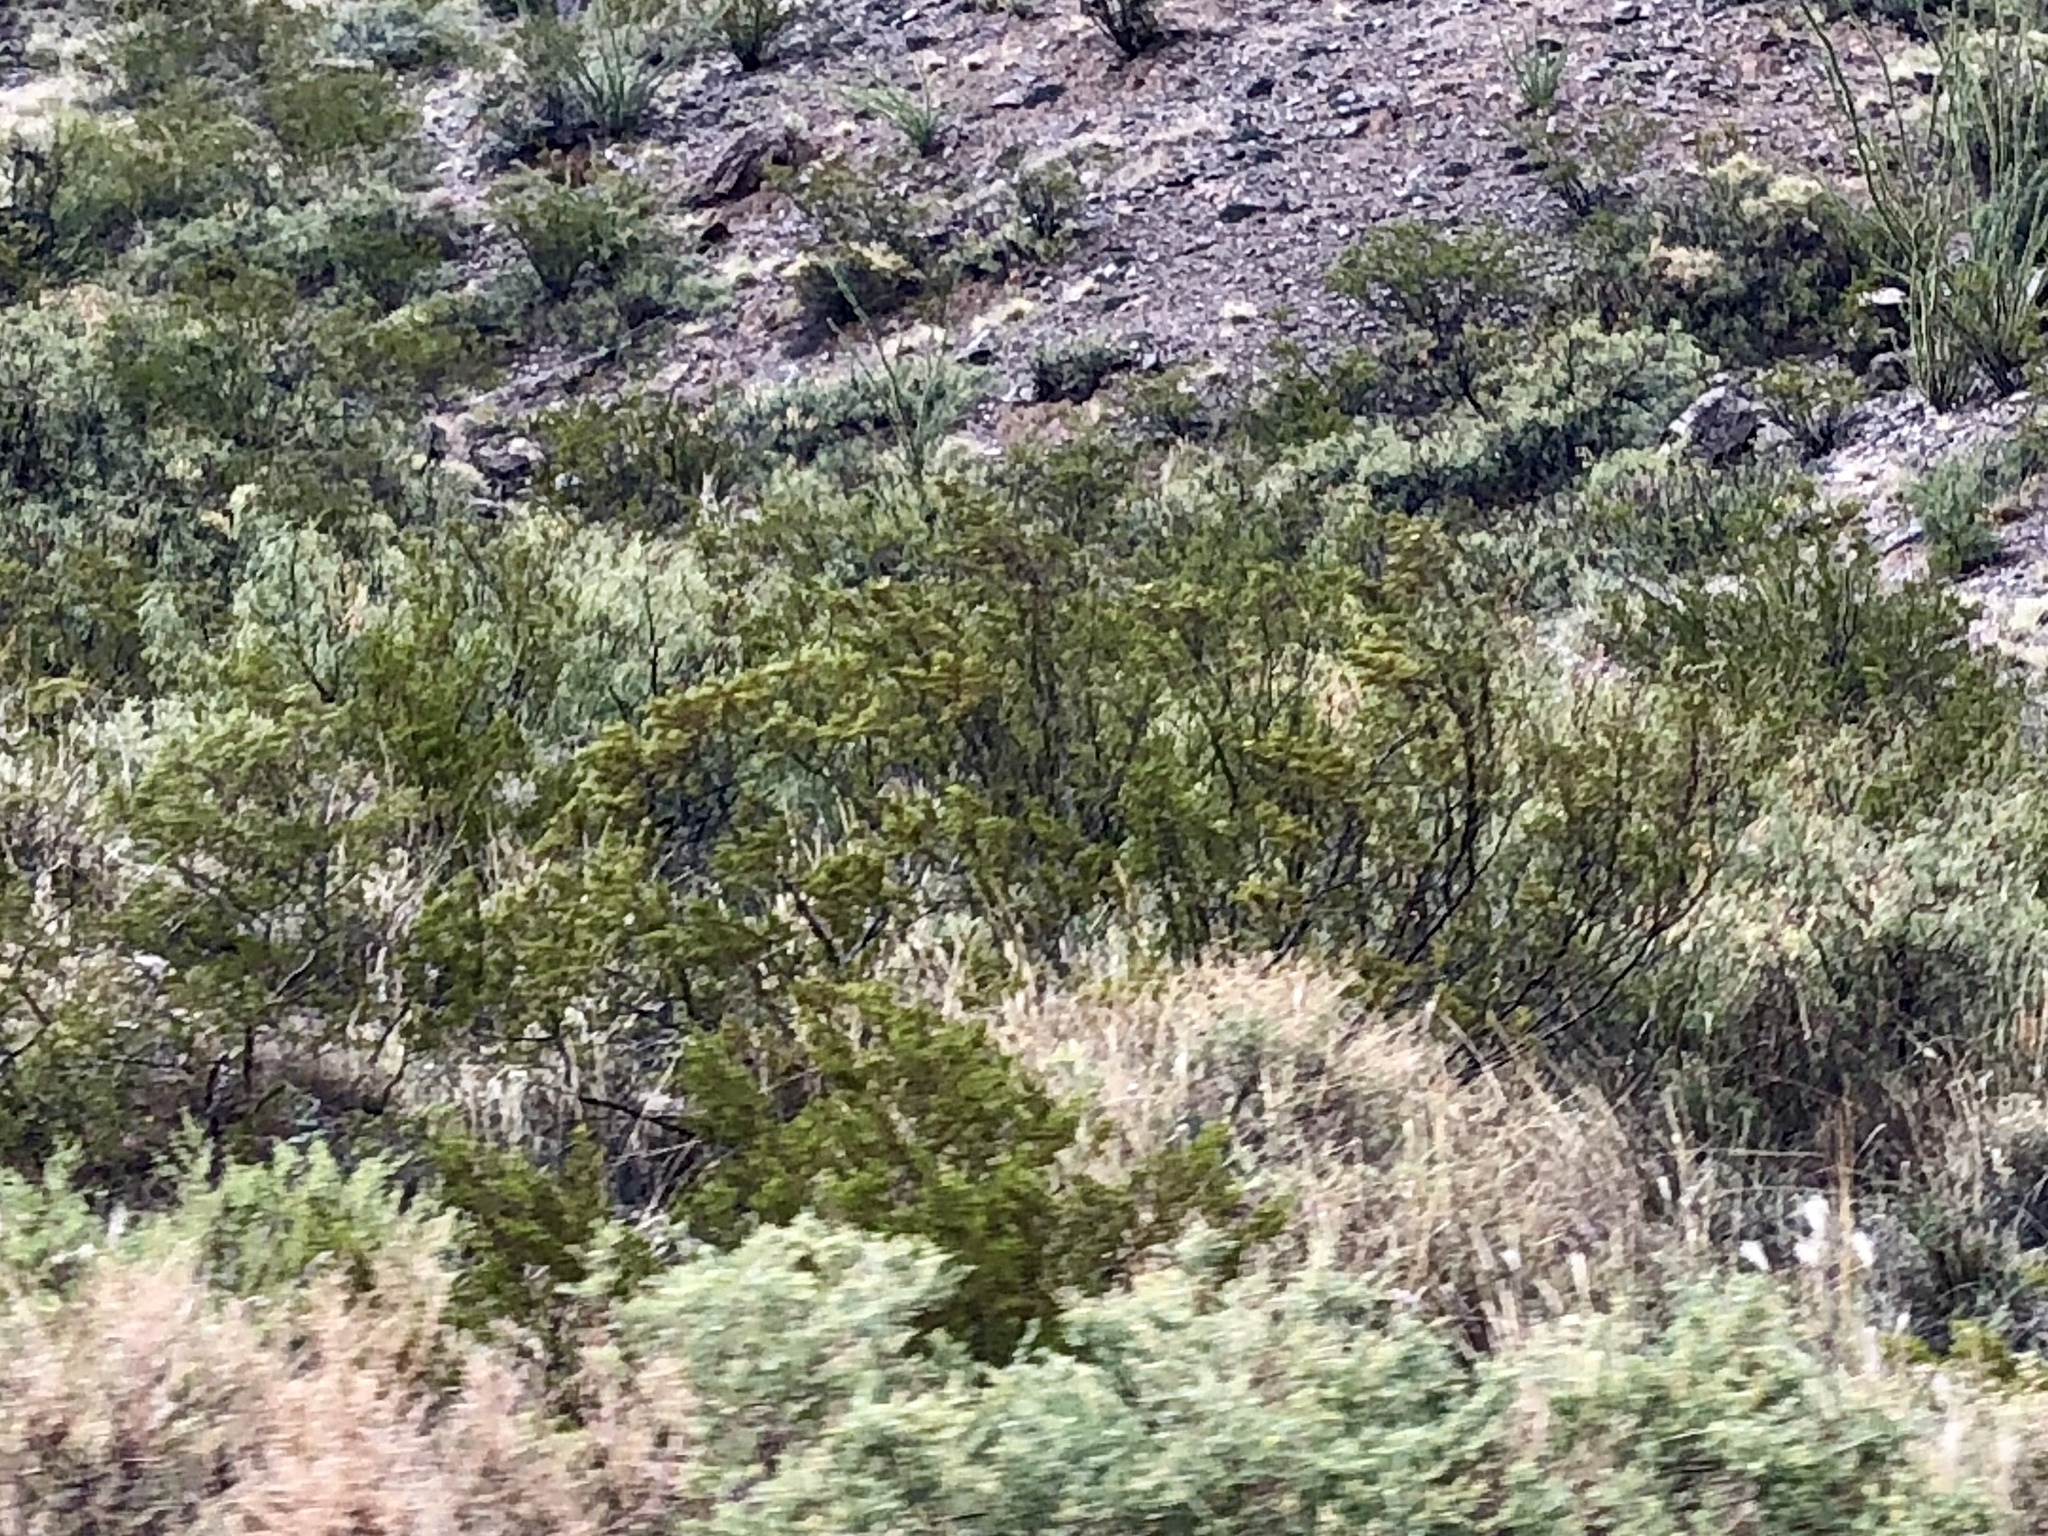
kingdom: Plantae
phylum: Tracheophyta
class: Magnoliopsida
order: Zygophyllales
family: Zygophyllaceae
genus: Larrea
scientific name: Larrea tridentata
